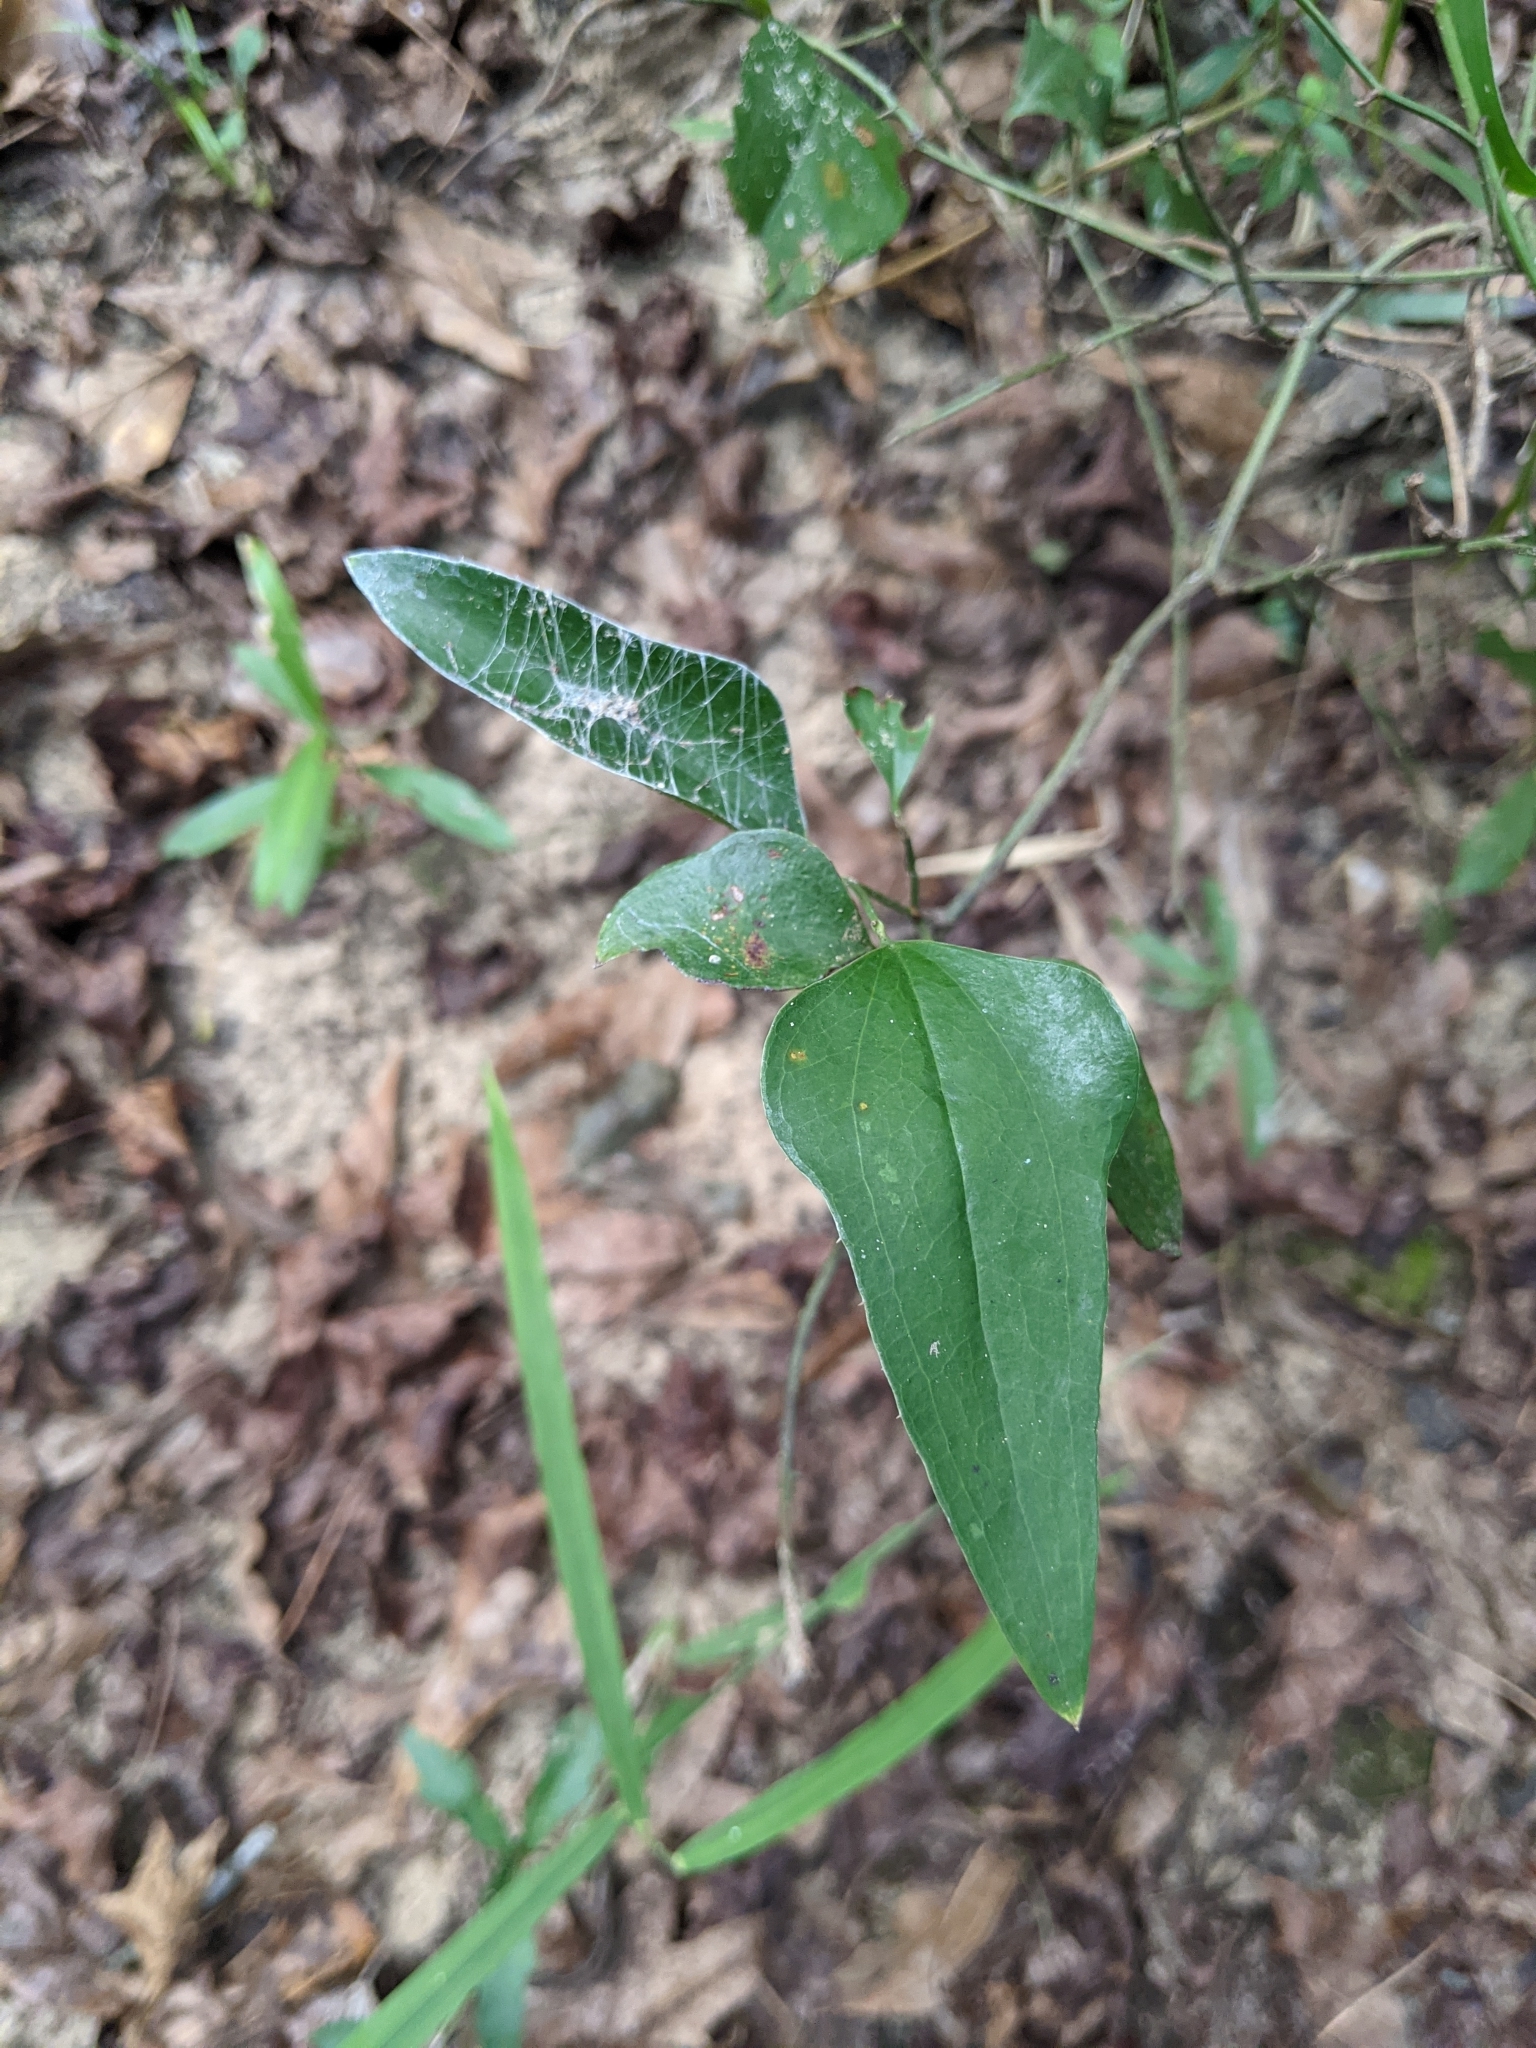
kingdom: Plantae
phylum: Tracheophyta
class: Liliopsida
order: Liliales
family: Smilacaceae
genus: Smilax
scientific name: Smilax bona-nox
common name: Catbrier
